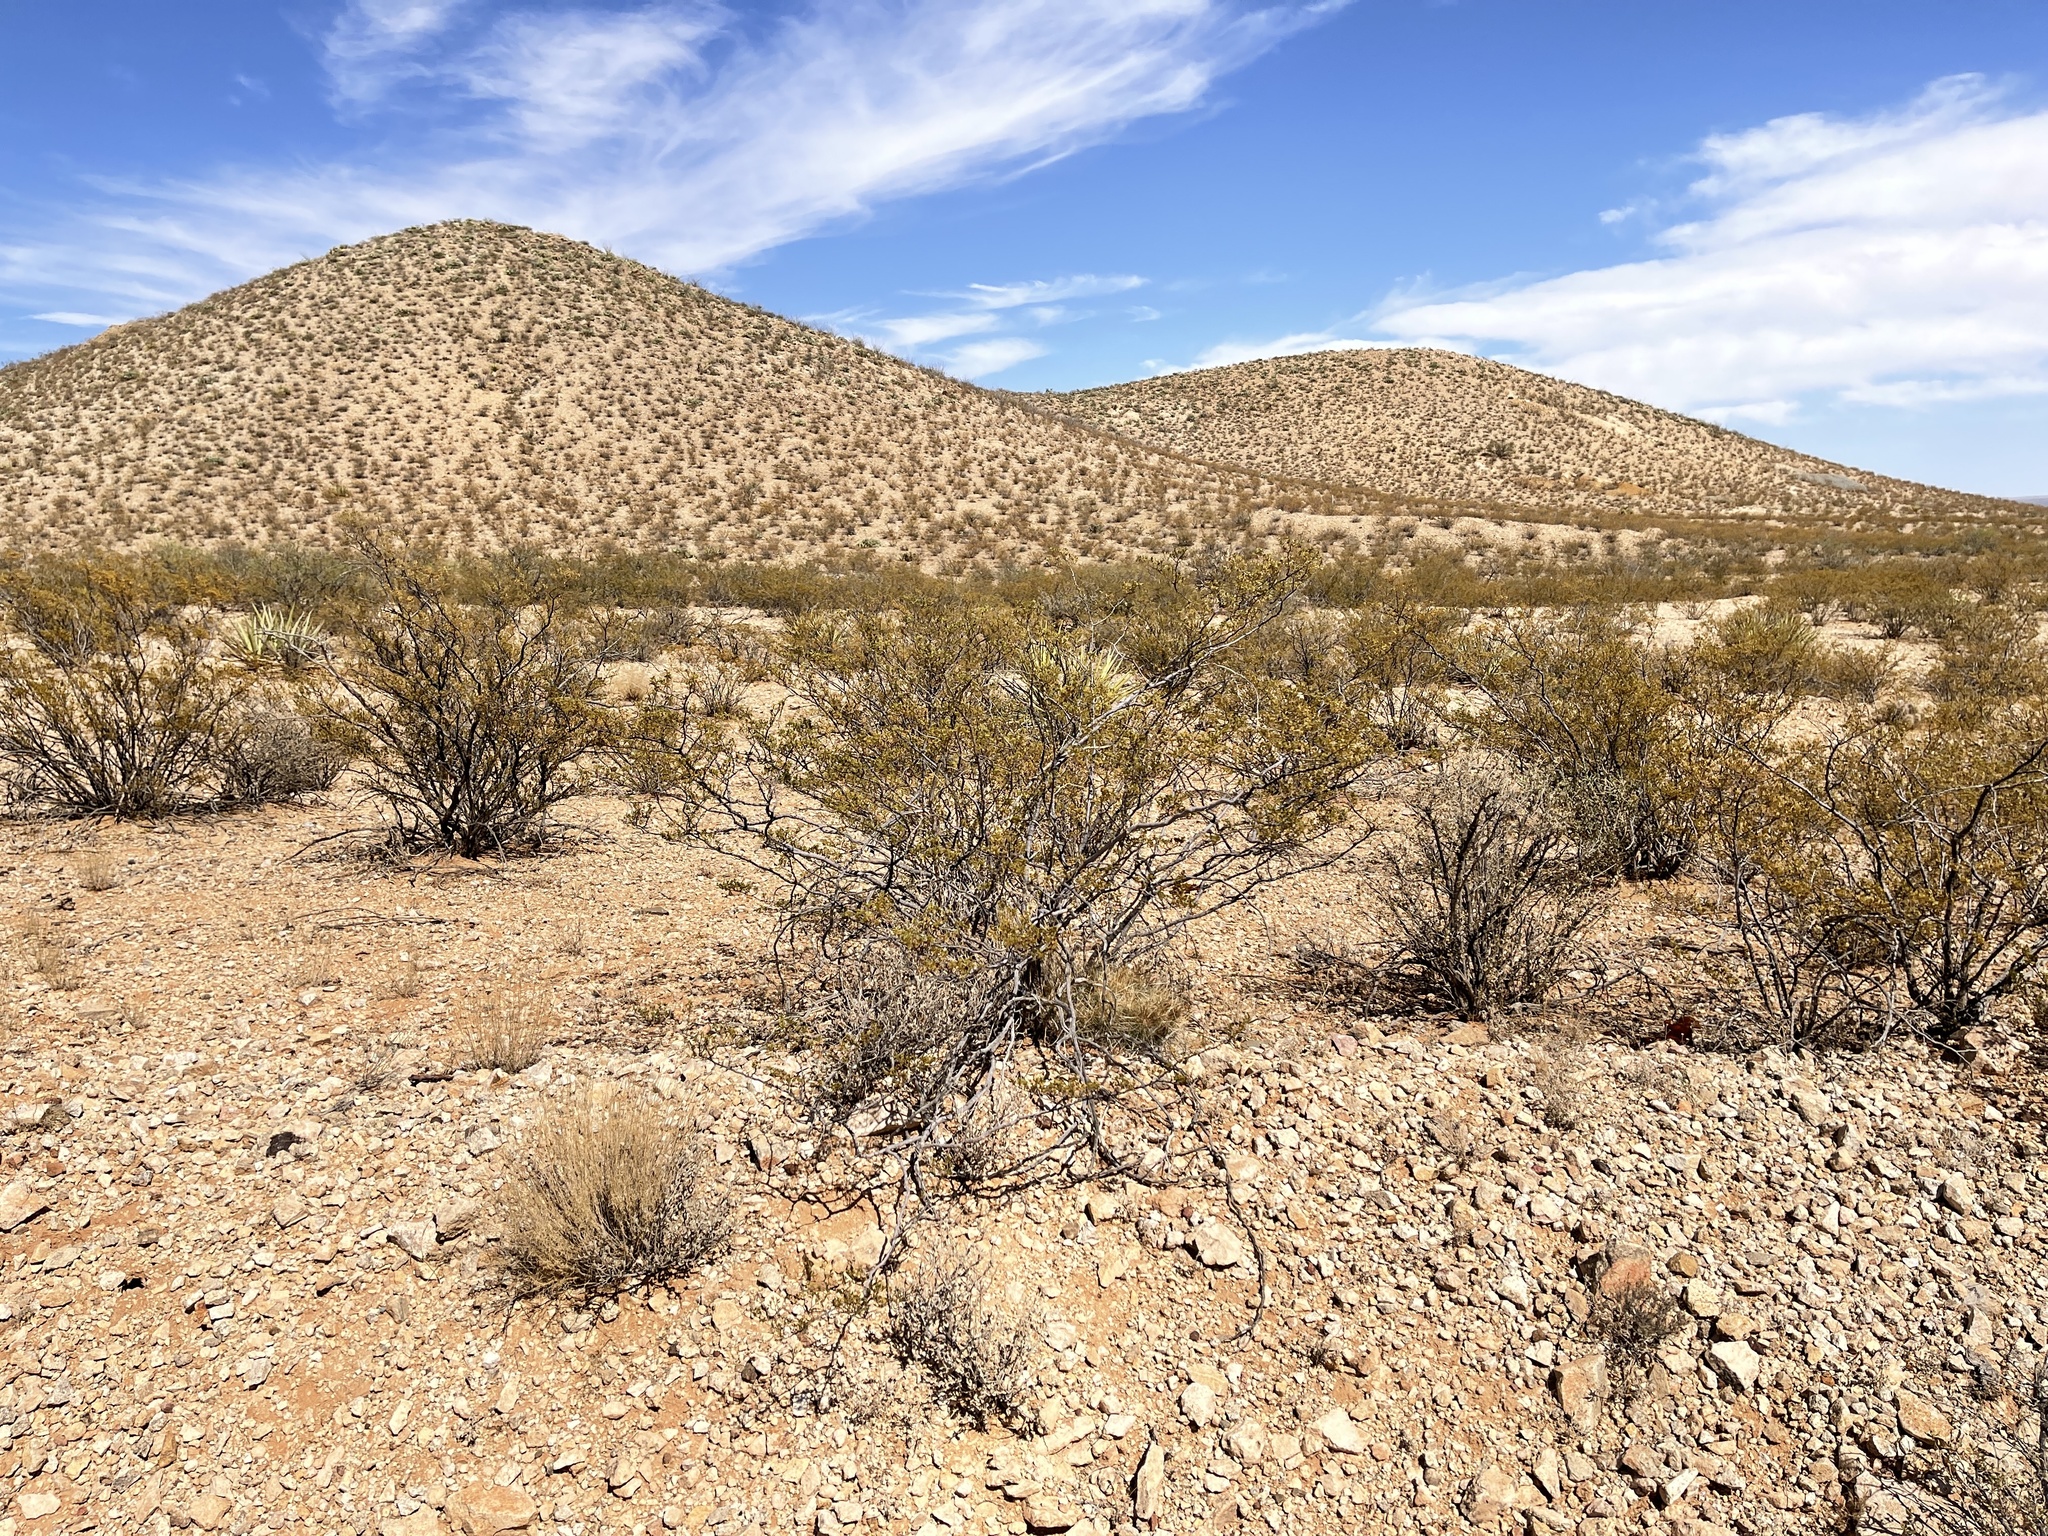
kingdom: Plantae
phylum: Tracheophyta
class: Magnoliopsida
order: Zygophyllales
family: Zygophyllaceae
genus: Larrea
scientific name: Larrea tridentata
